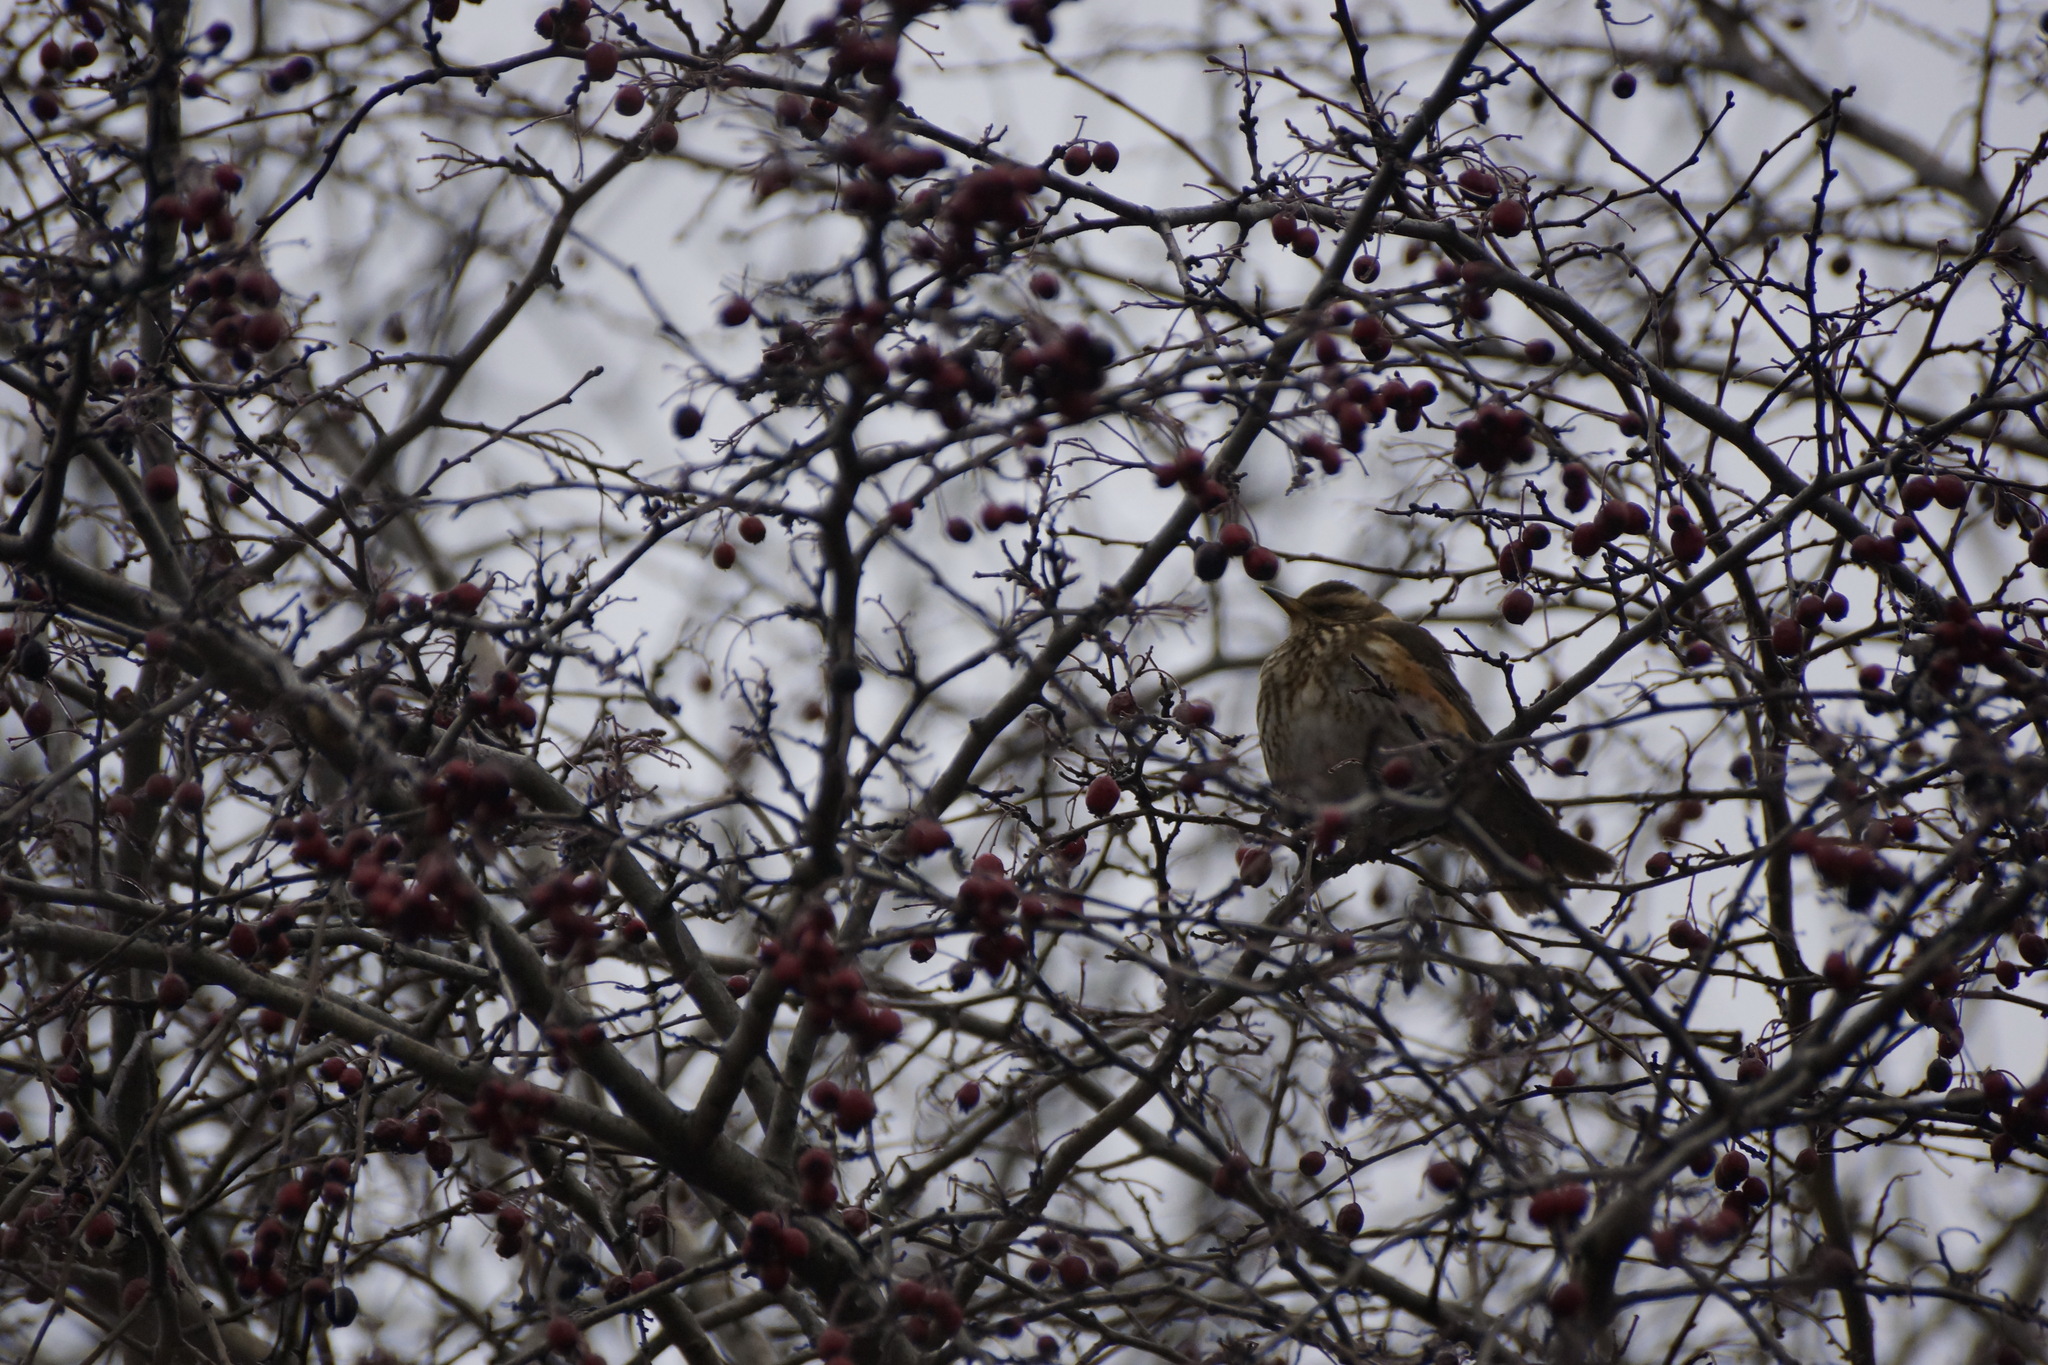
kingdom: Animalia
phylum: Chordata
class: Aves
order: Passeriformes
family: Turdidae
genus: Turdus
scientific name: Turdus iliacus
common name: Redwing
